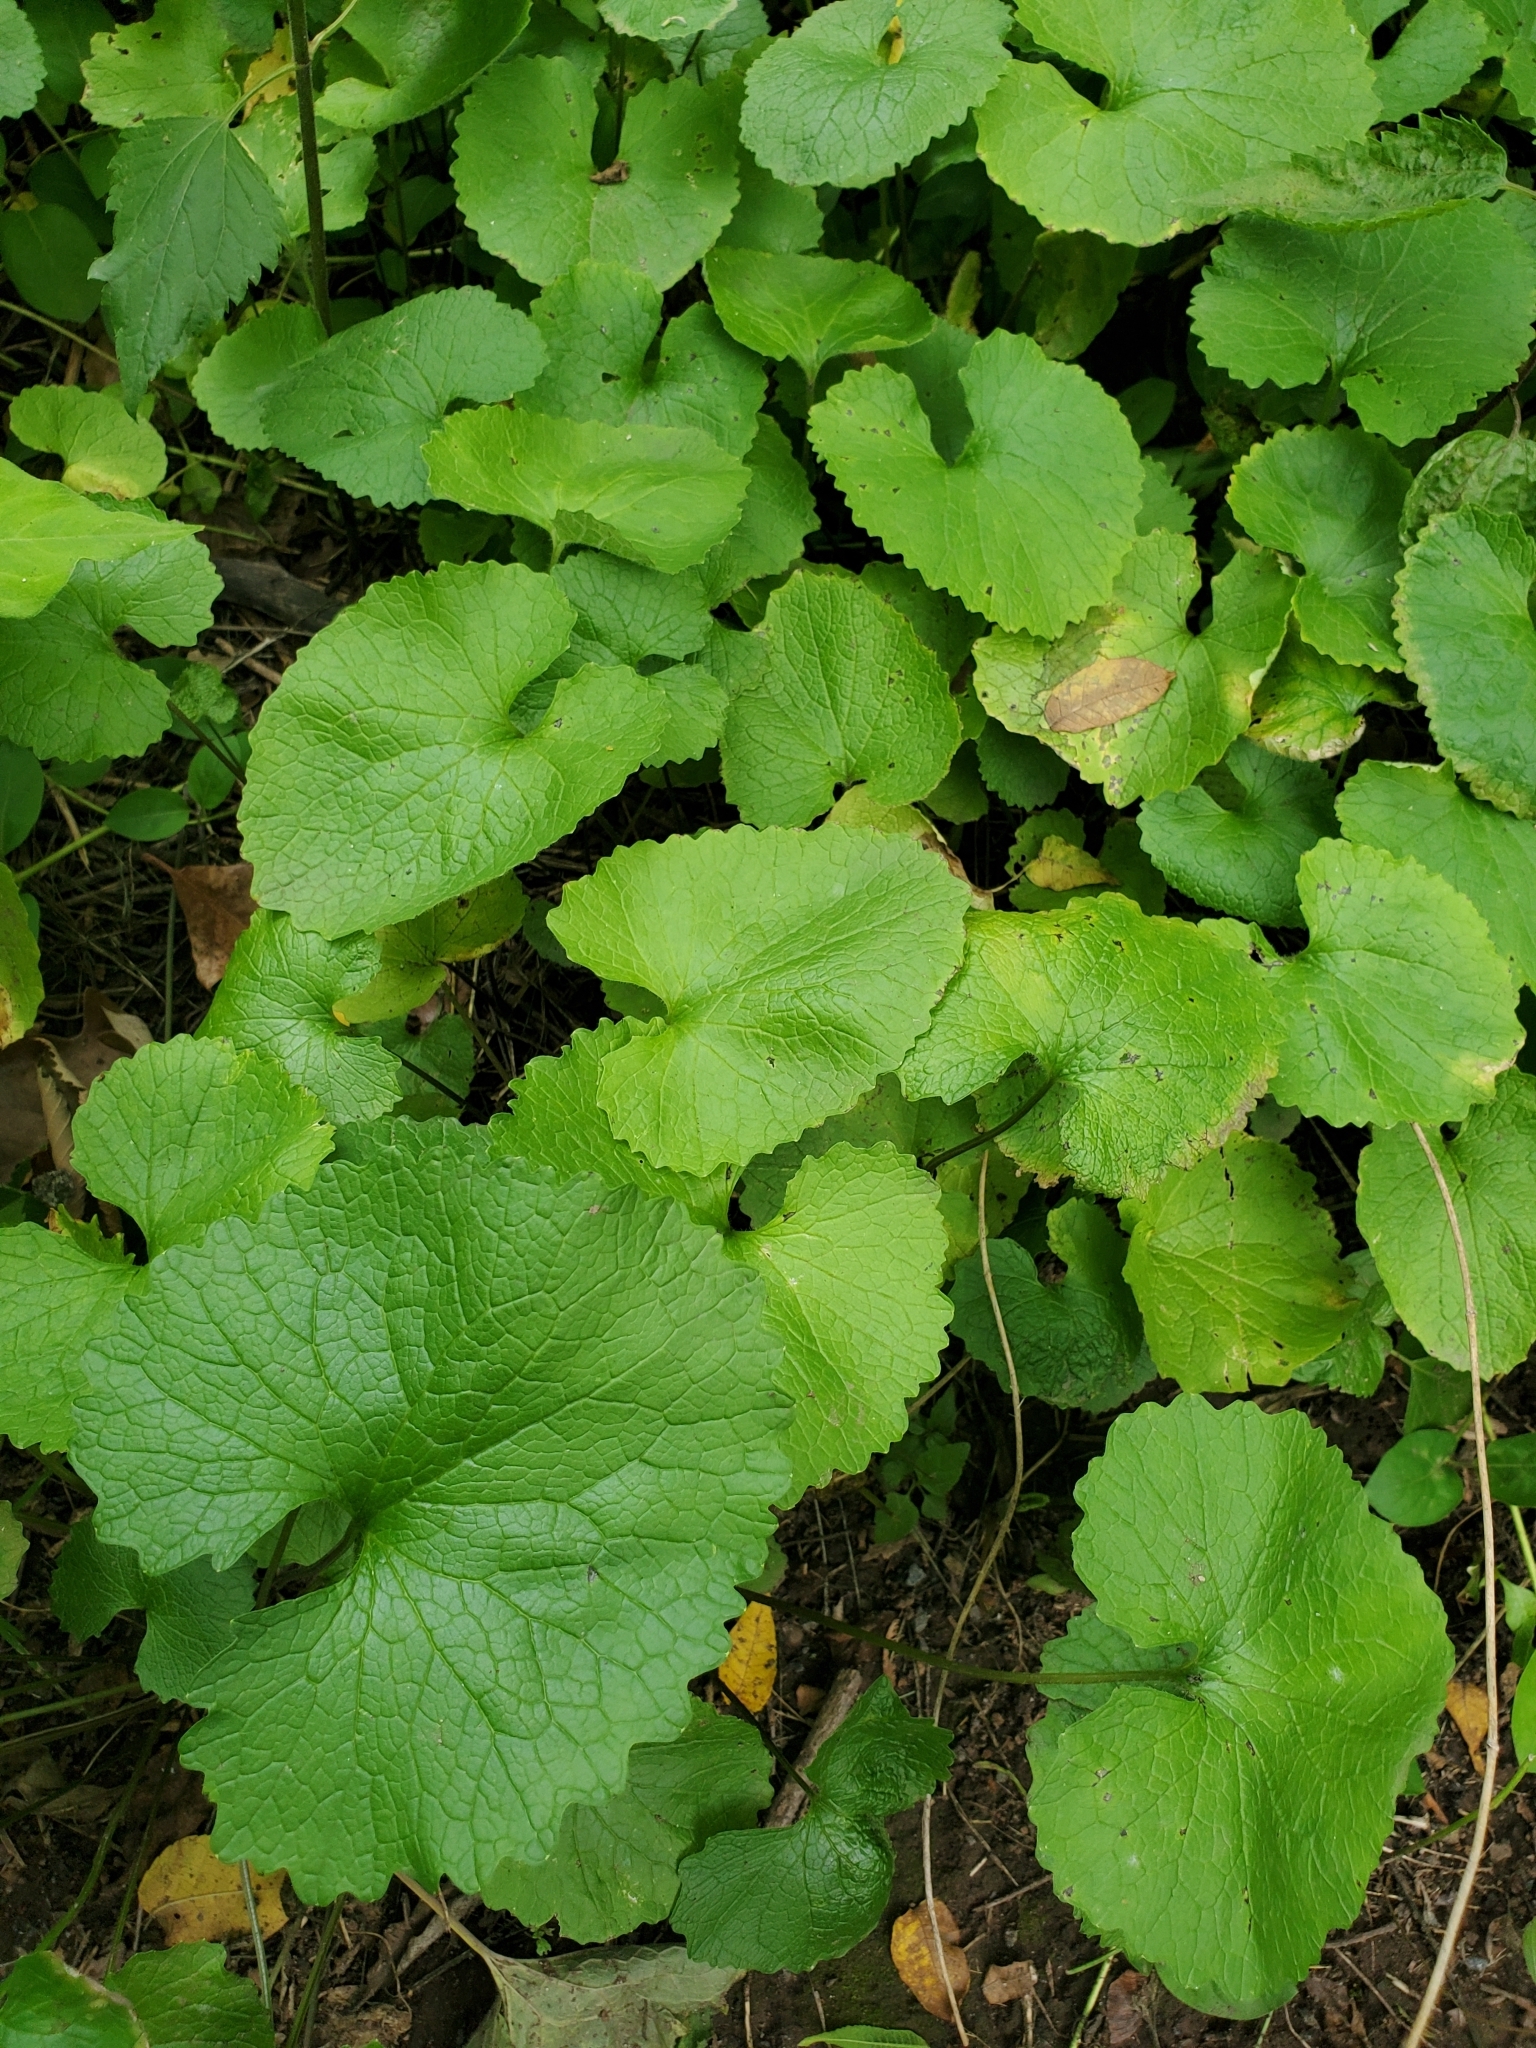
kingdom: Plantae
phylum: Tracheophyta
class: Magnoliopsida
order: Brassicales
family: Brassicaceae
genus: Alliaria
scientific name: Alliaria petiolata
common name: Garlic mustard
